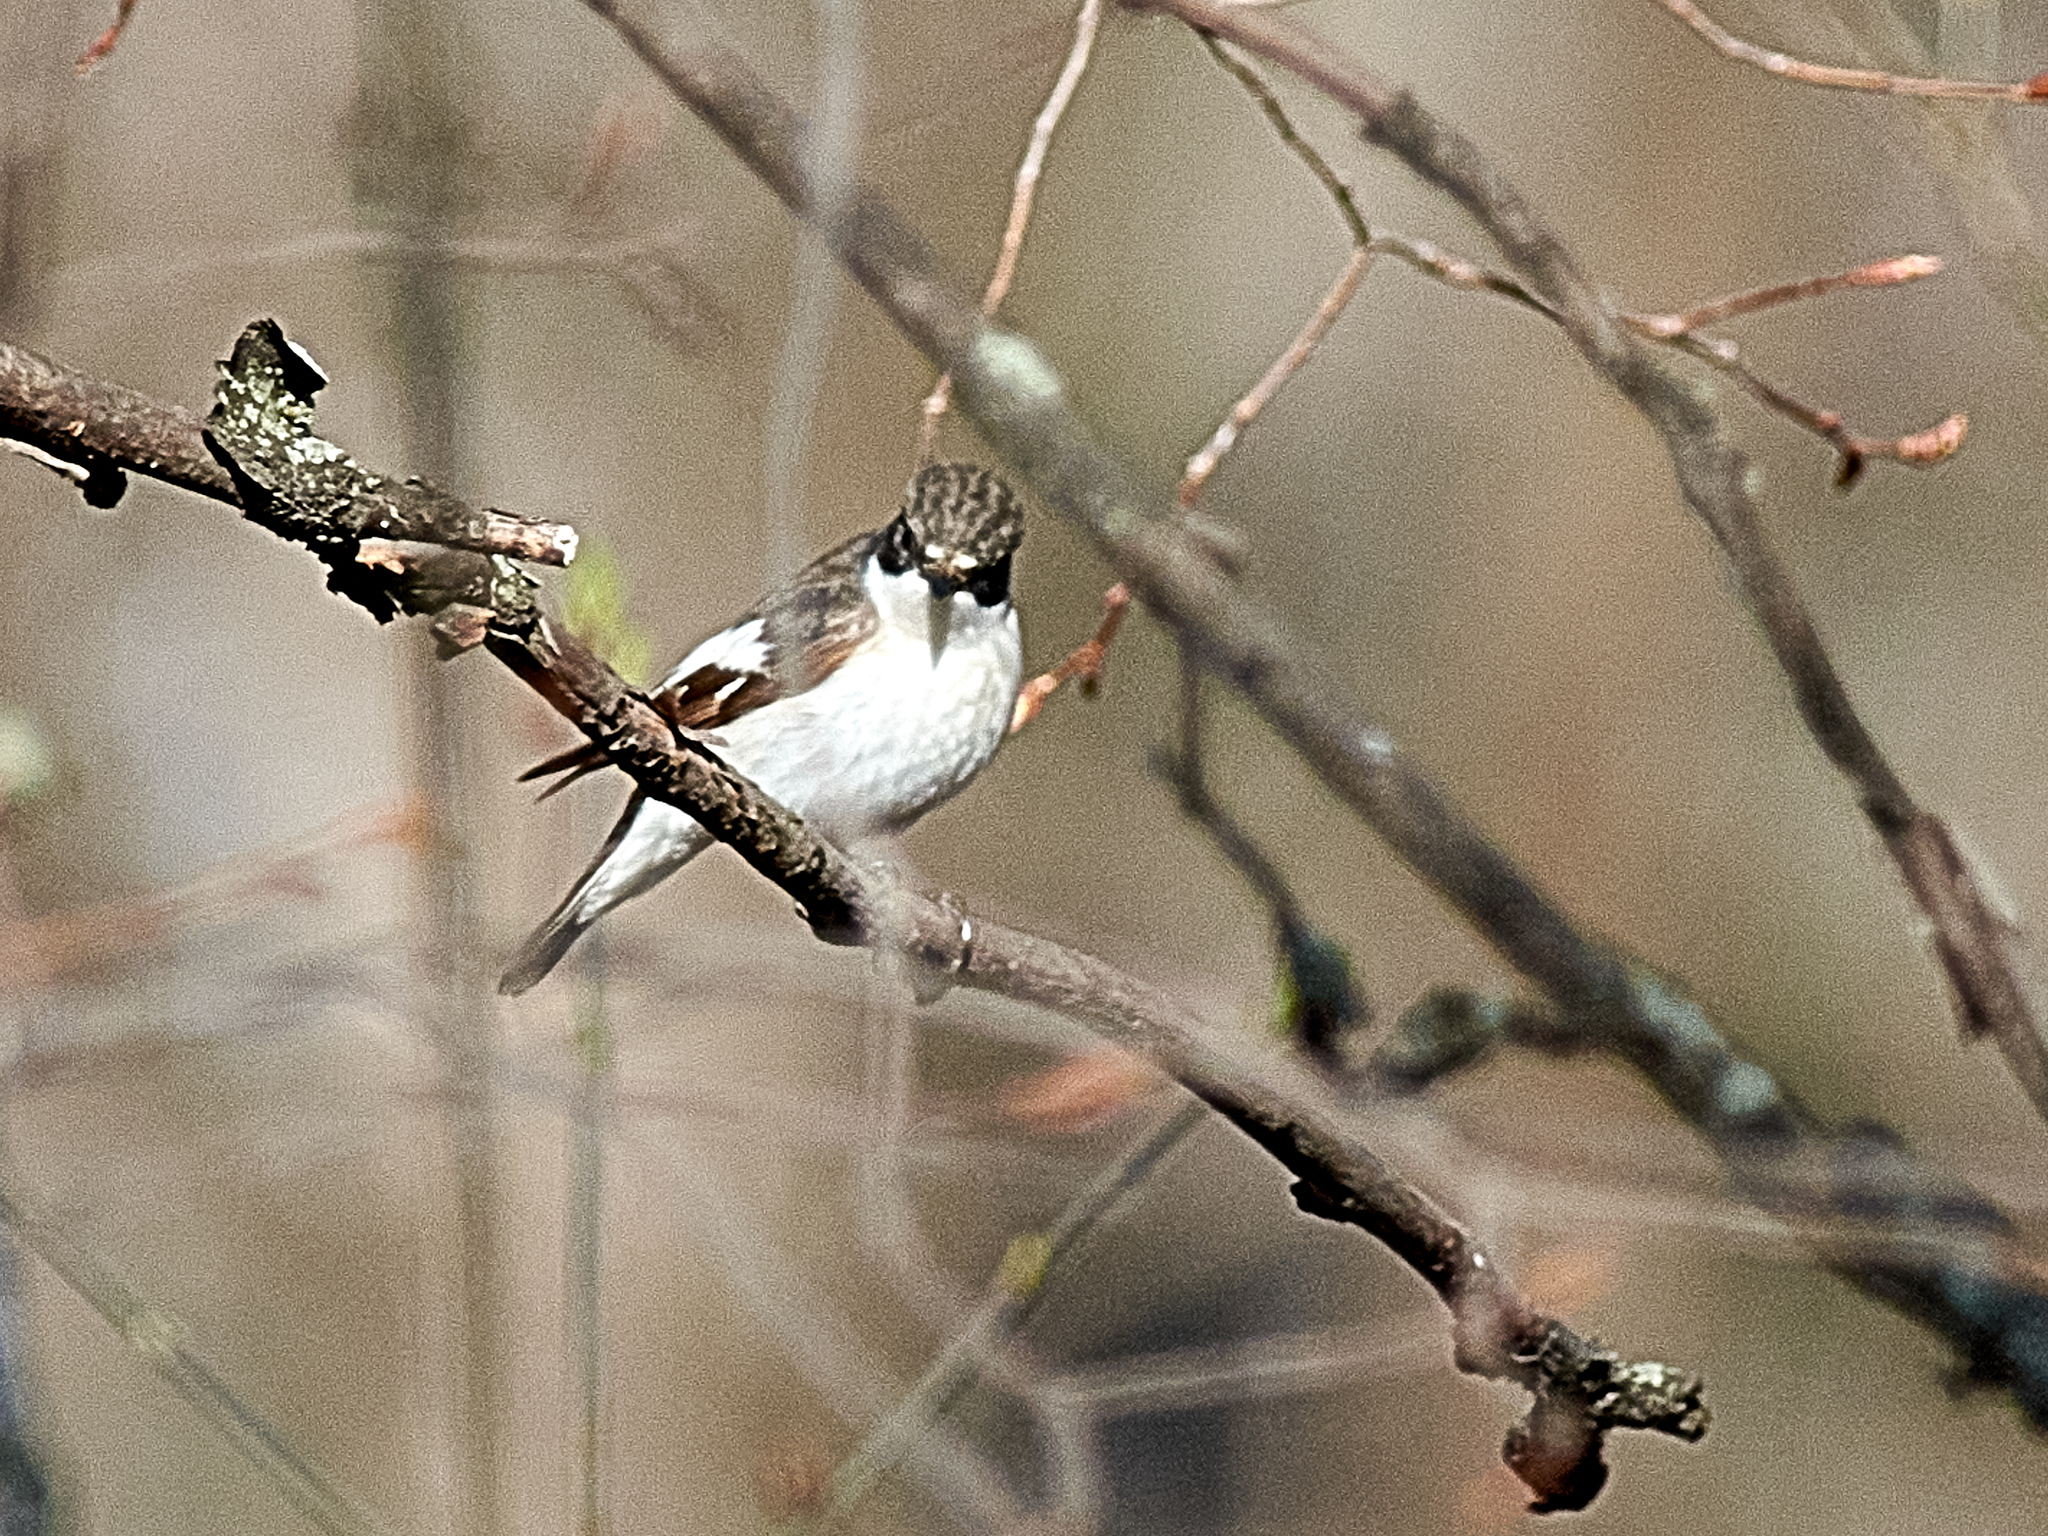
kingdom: Animalia
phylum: Chordata
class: Aves
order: Passeriformes
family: Muscicapidae
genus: Ficedula
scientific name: Ficedula hypoleuca
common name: European pied flycatcher
